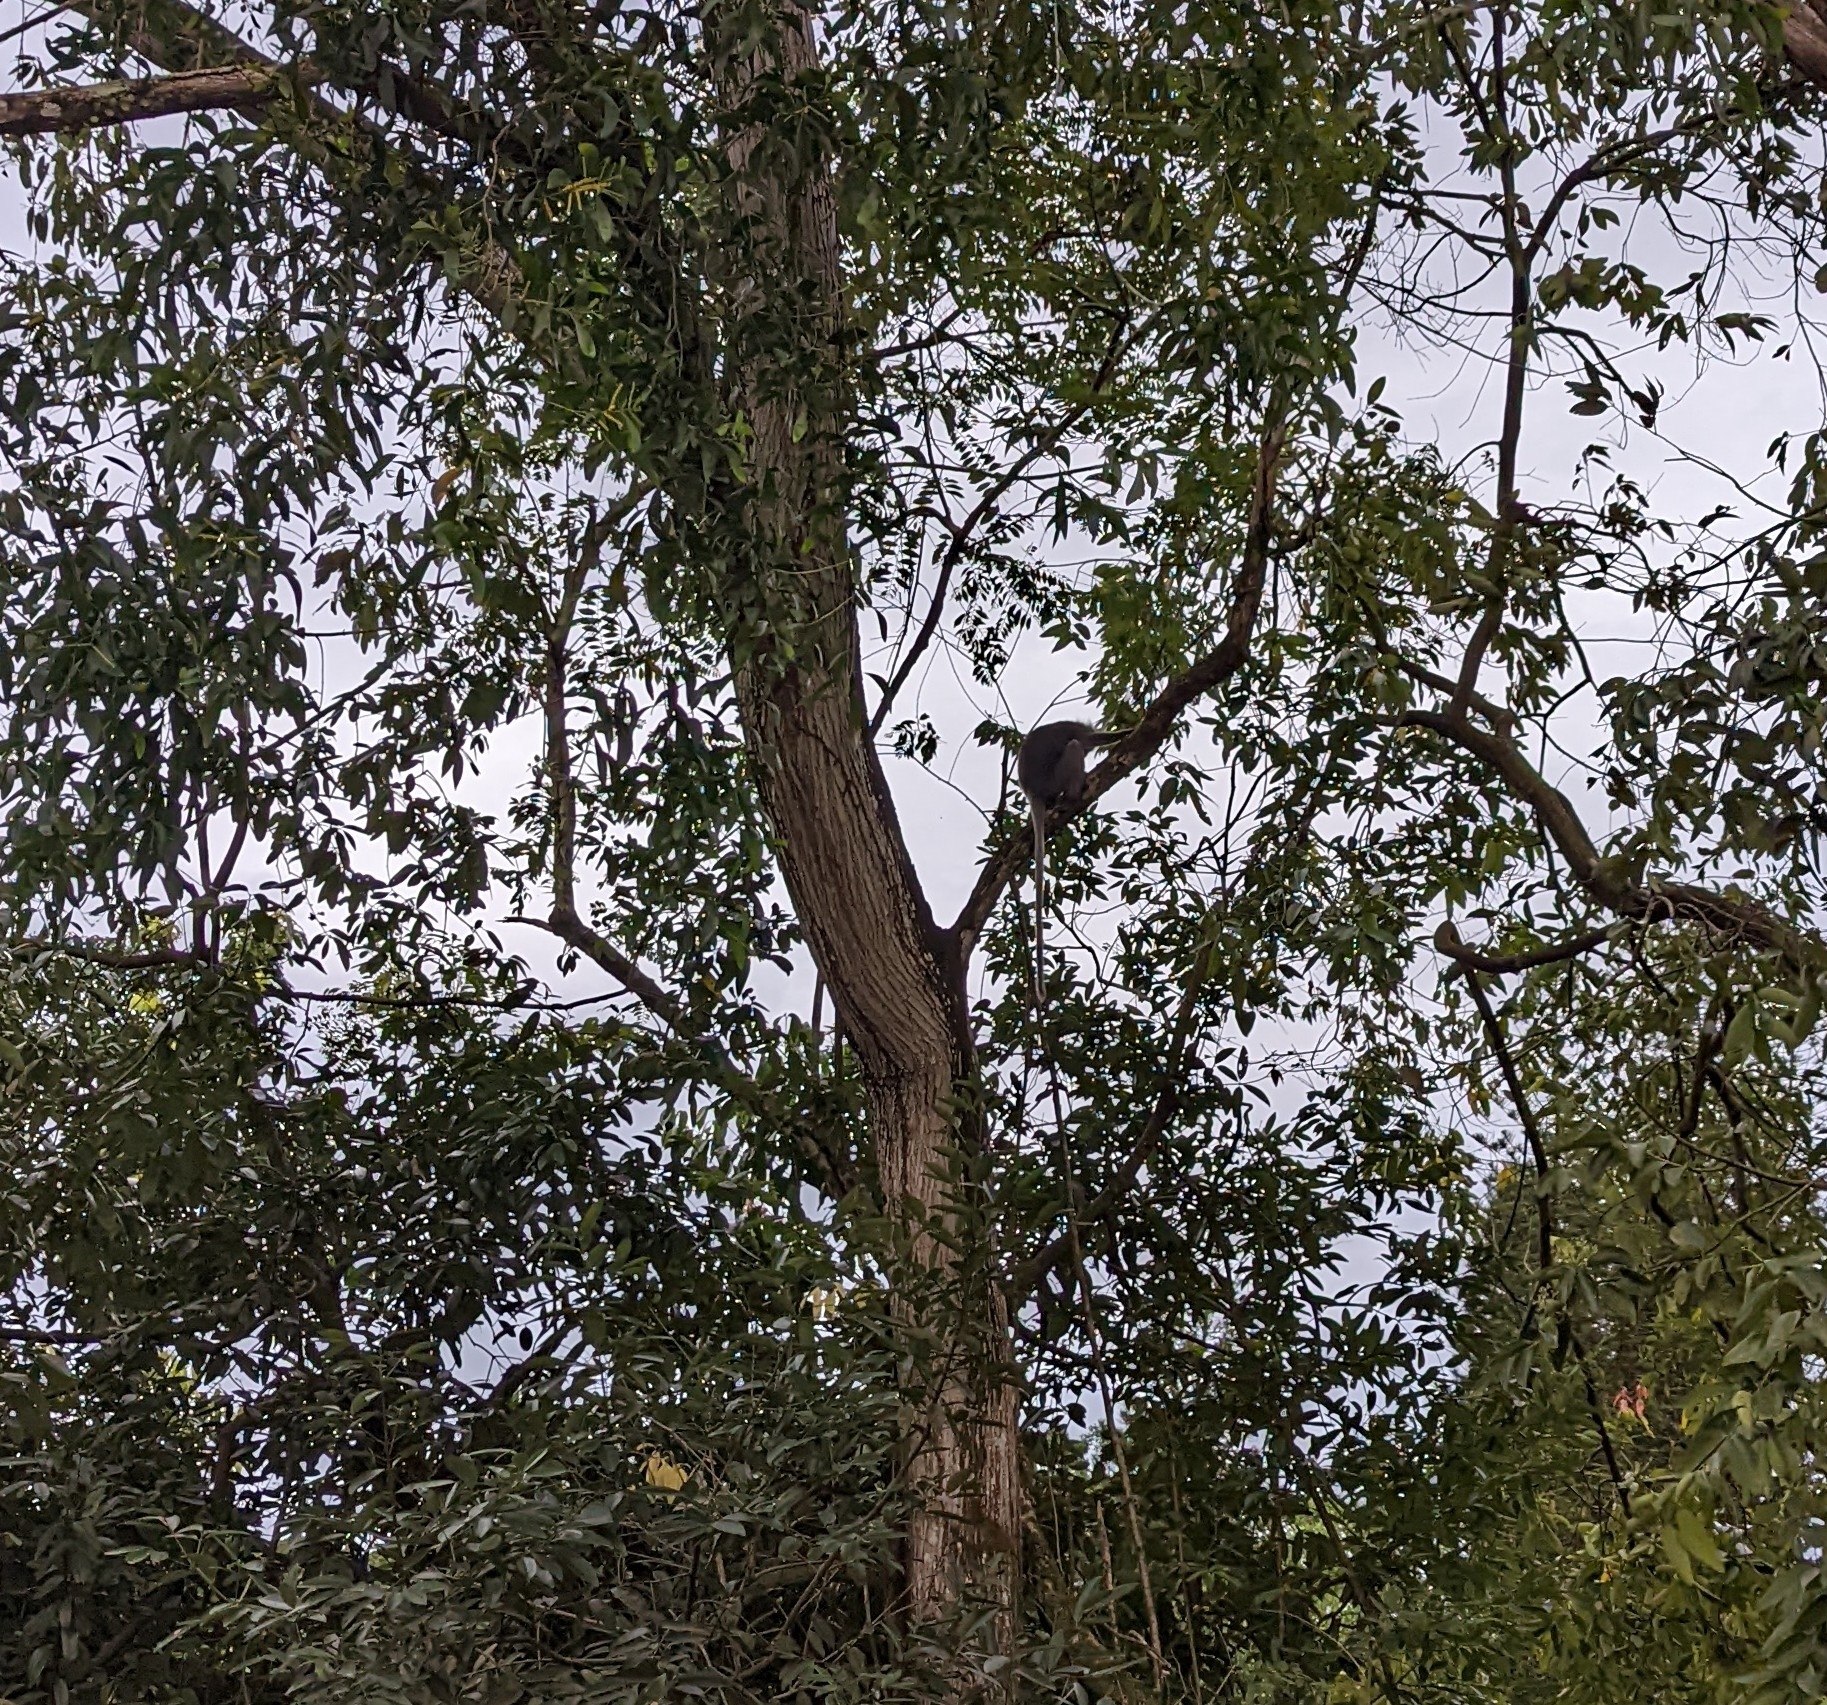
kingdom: Animalia
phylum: Chordata
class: Mammalia
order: Primates
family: Cercopithecidae
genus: Trachypithecus
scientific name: Trachypithecus obscurus
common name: Dusky leaf-monkey
